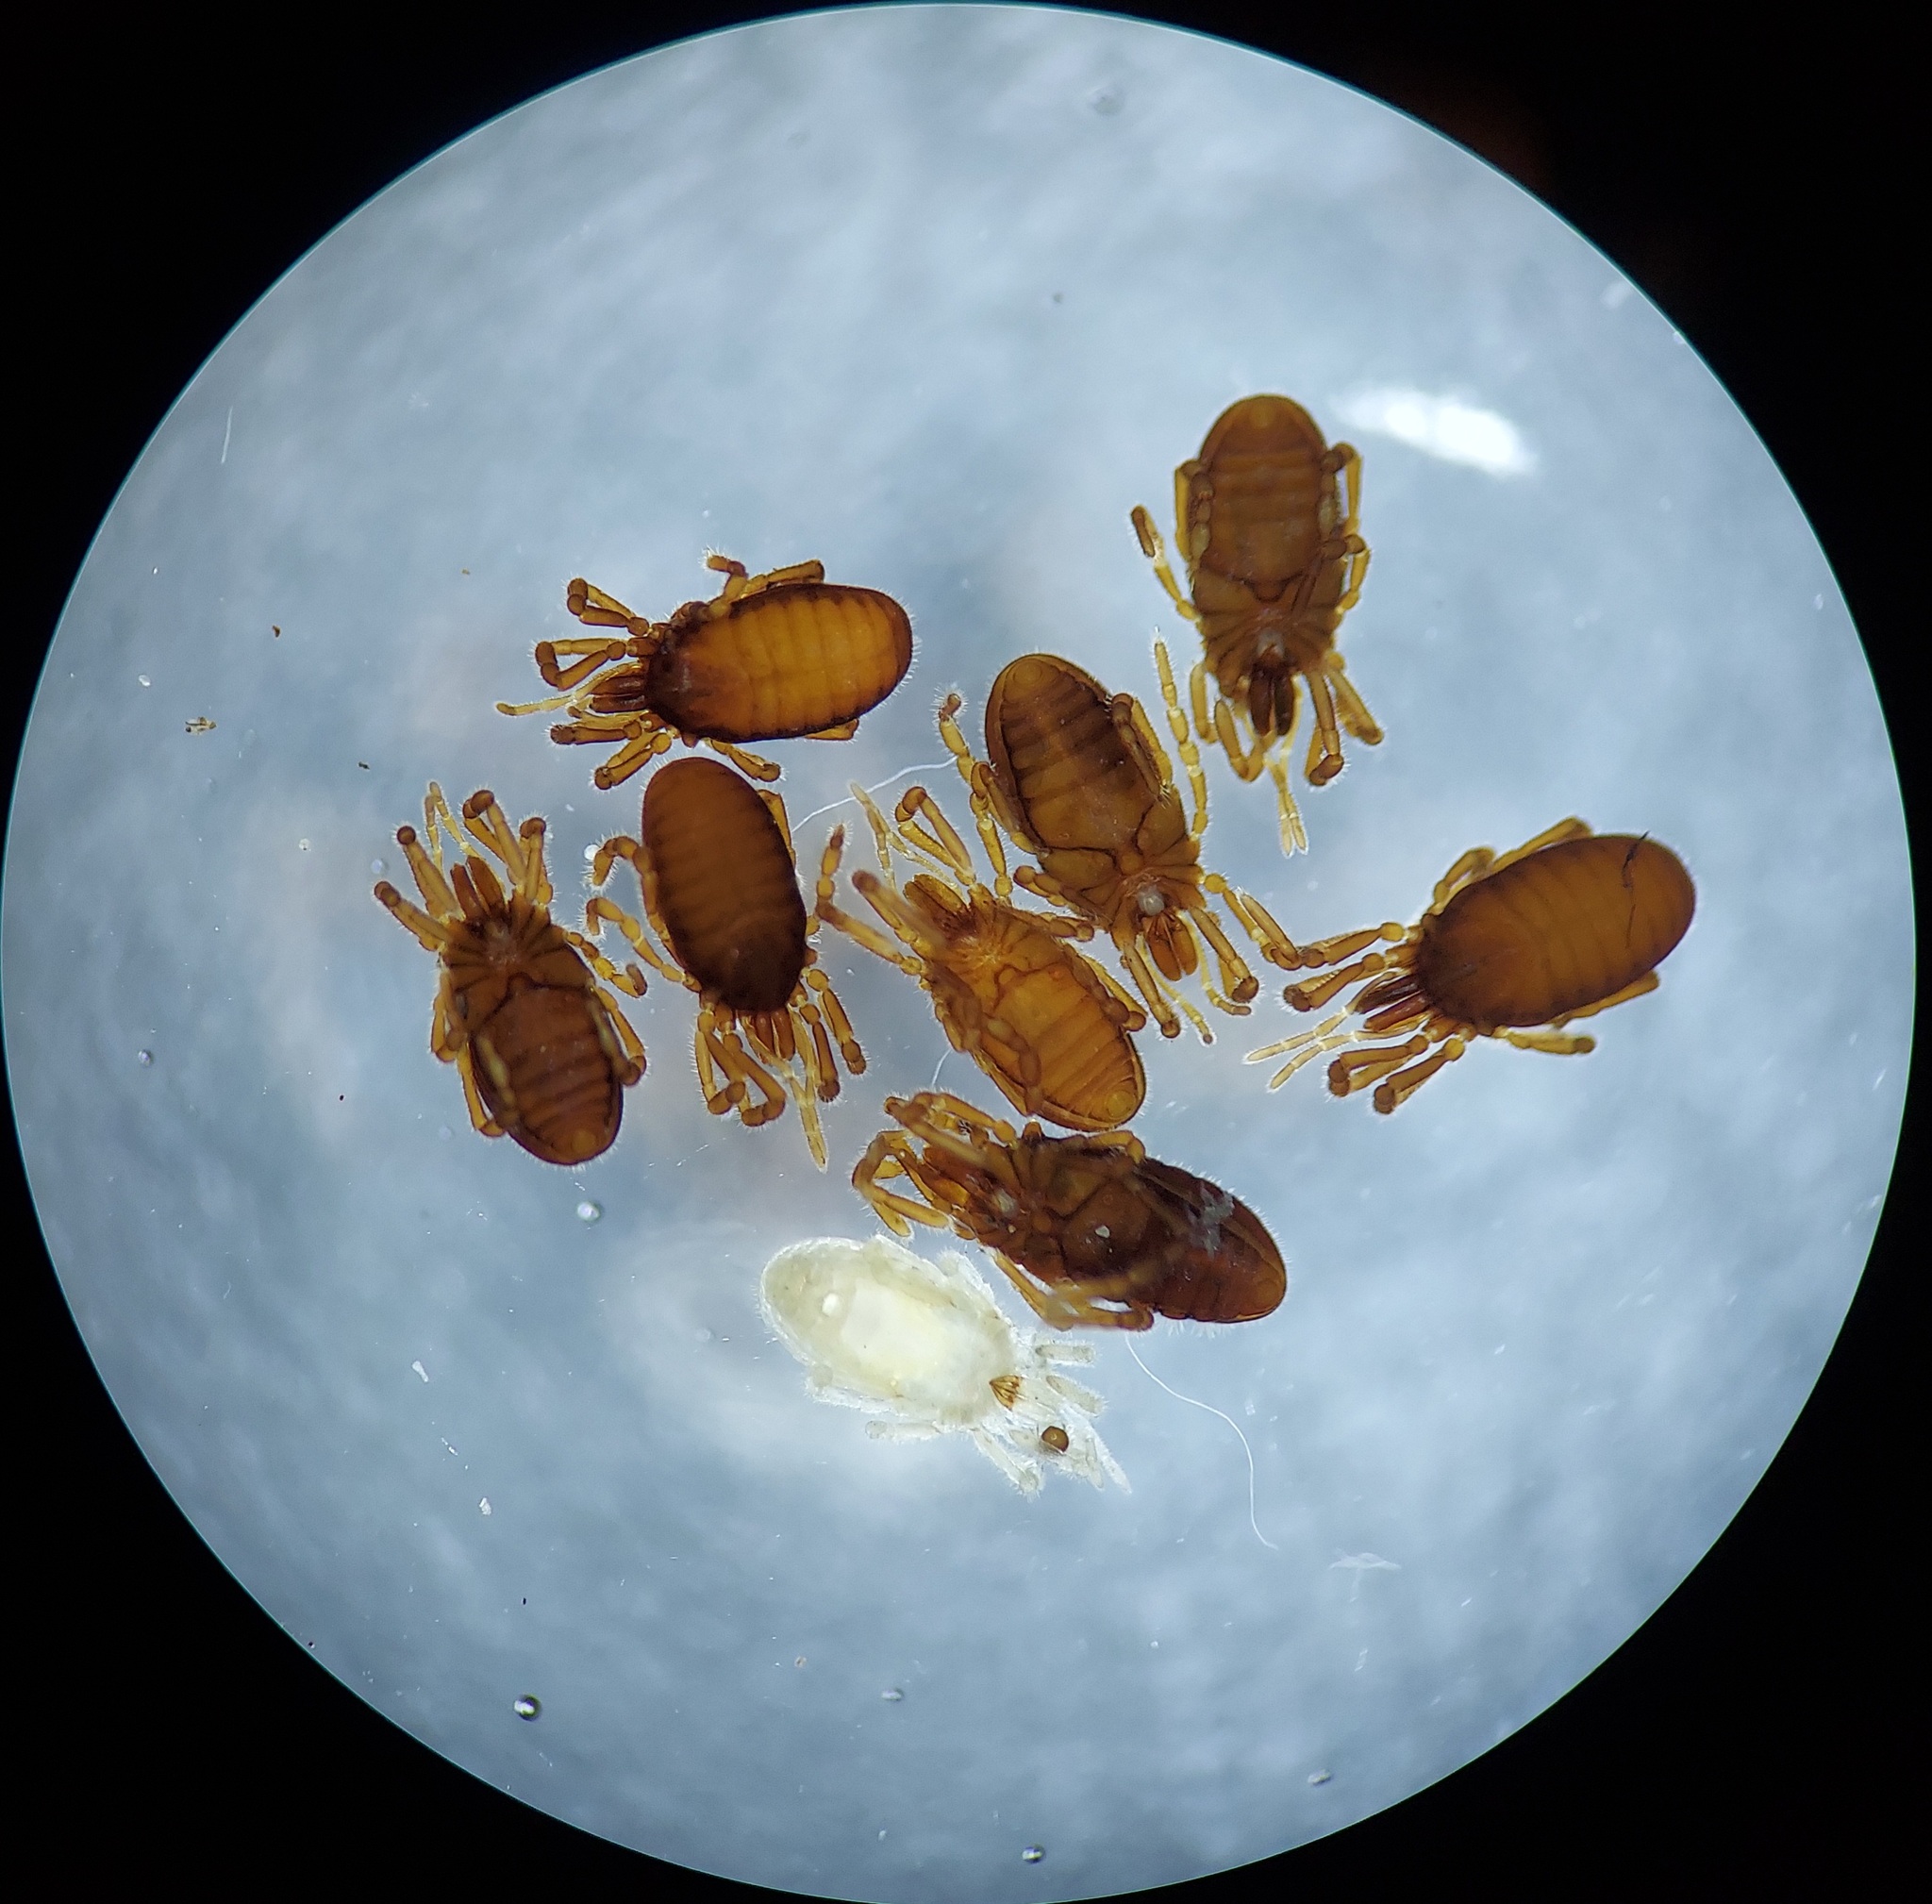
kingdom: Animalia
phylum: Arthropoda
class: Arachnida
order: Opiliones
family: Sironidae
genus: Neosiro
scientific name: Neosiro exilis
